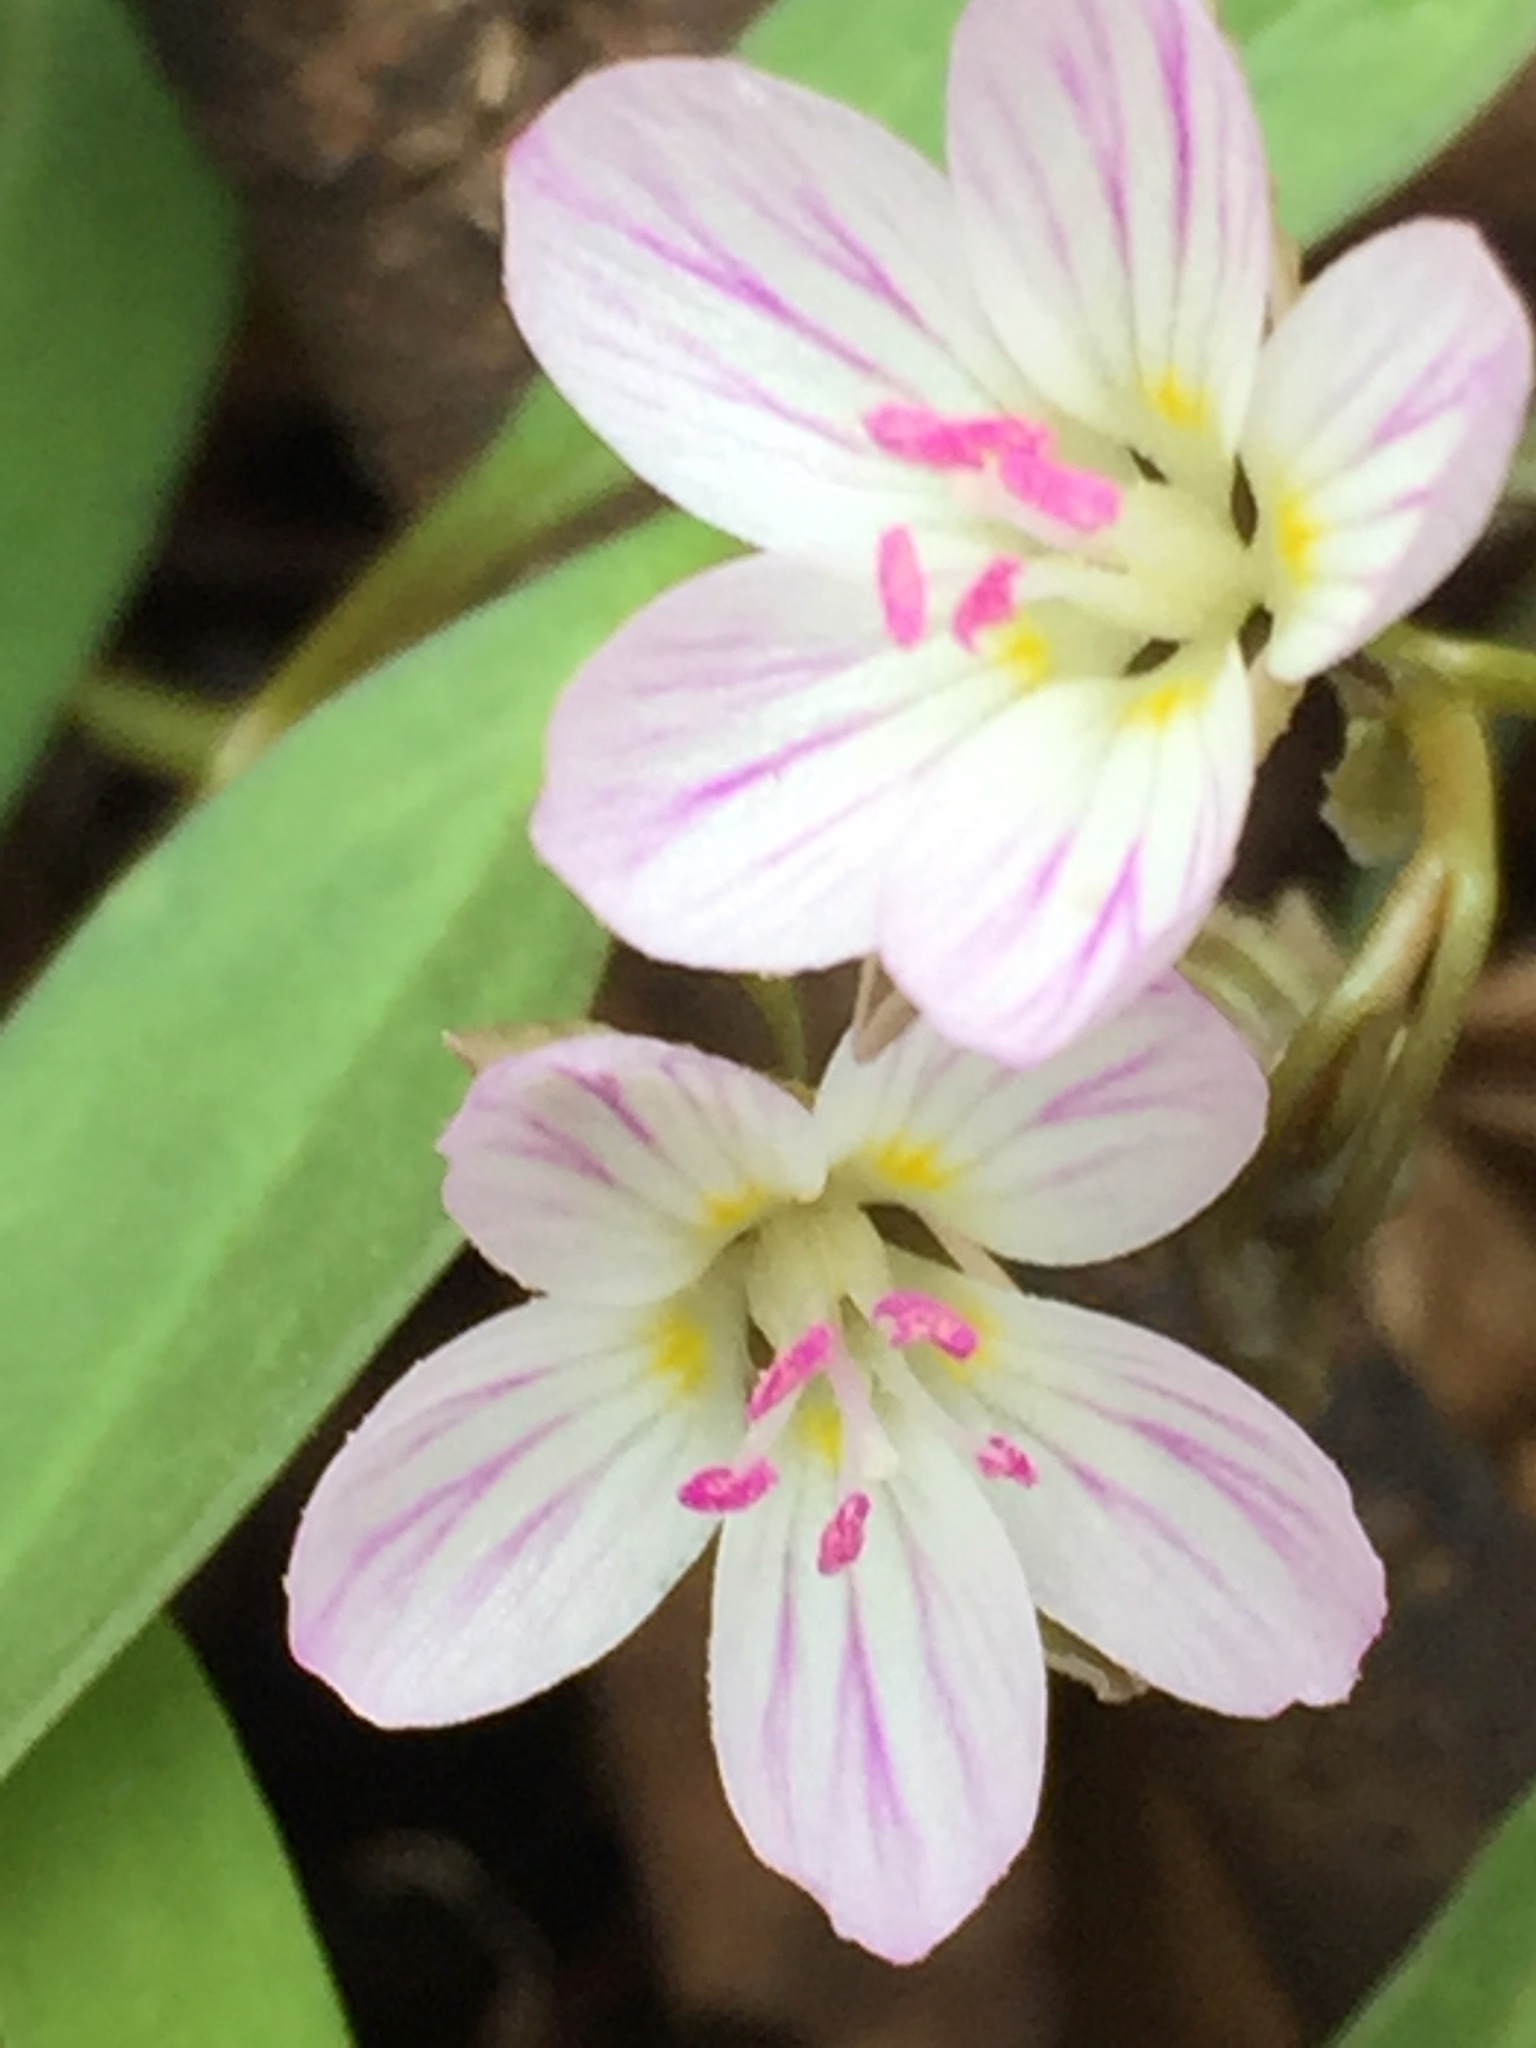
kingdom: Plantae
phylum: Tracheophyta
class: Magnoliopsida
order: Caryophyllales
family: Montiaceae
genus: Claytonia
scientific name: Claytonia caroliniana
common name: Carolina spring beauty
